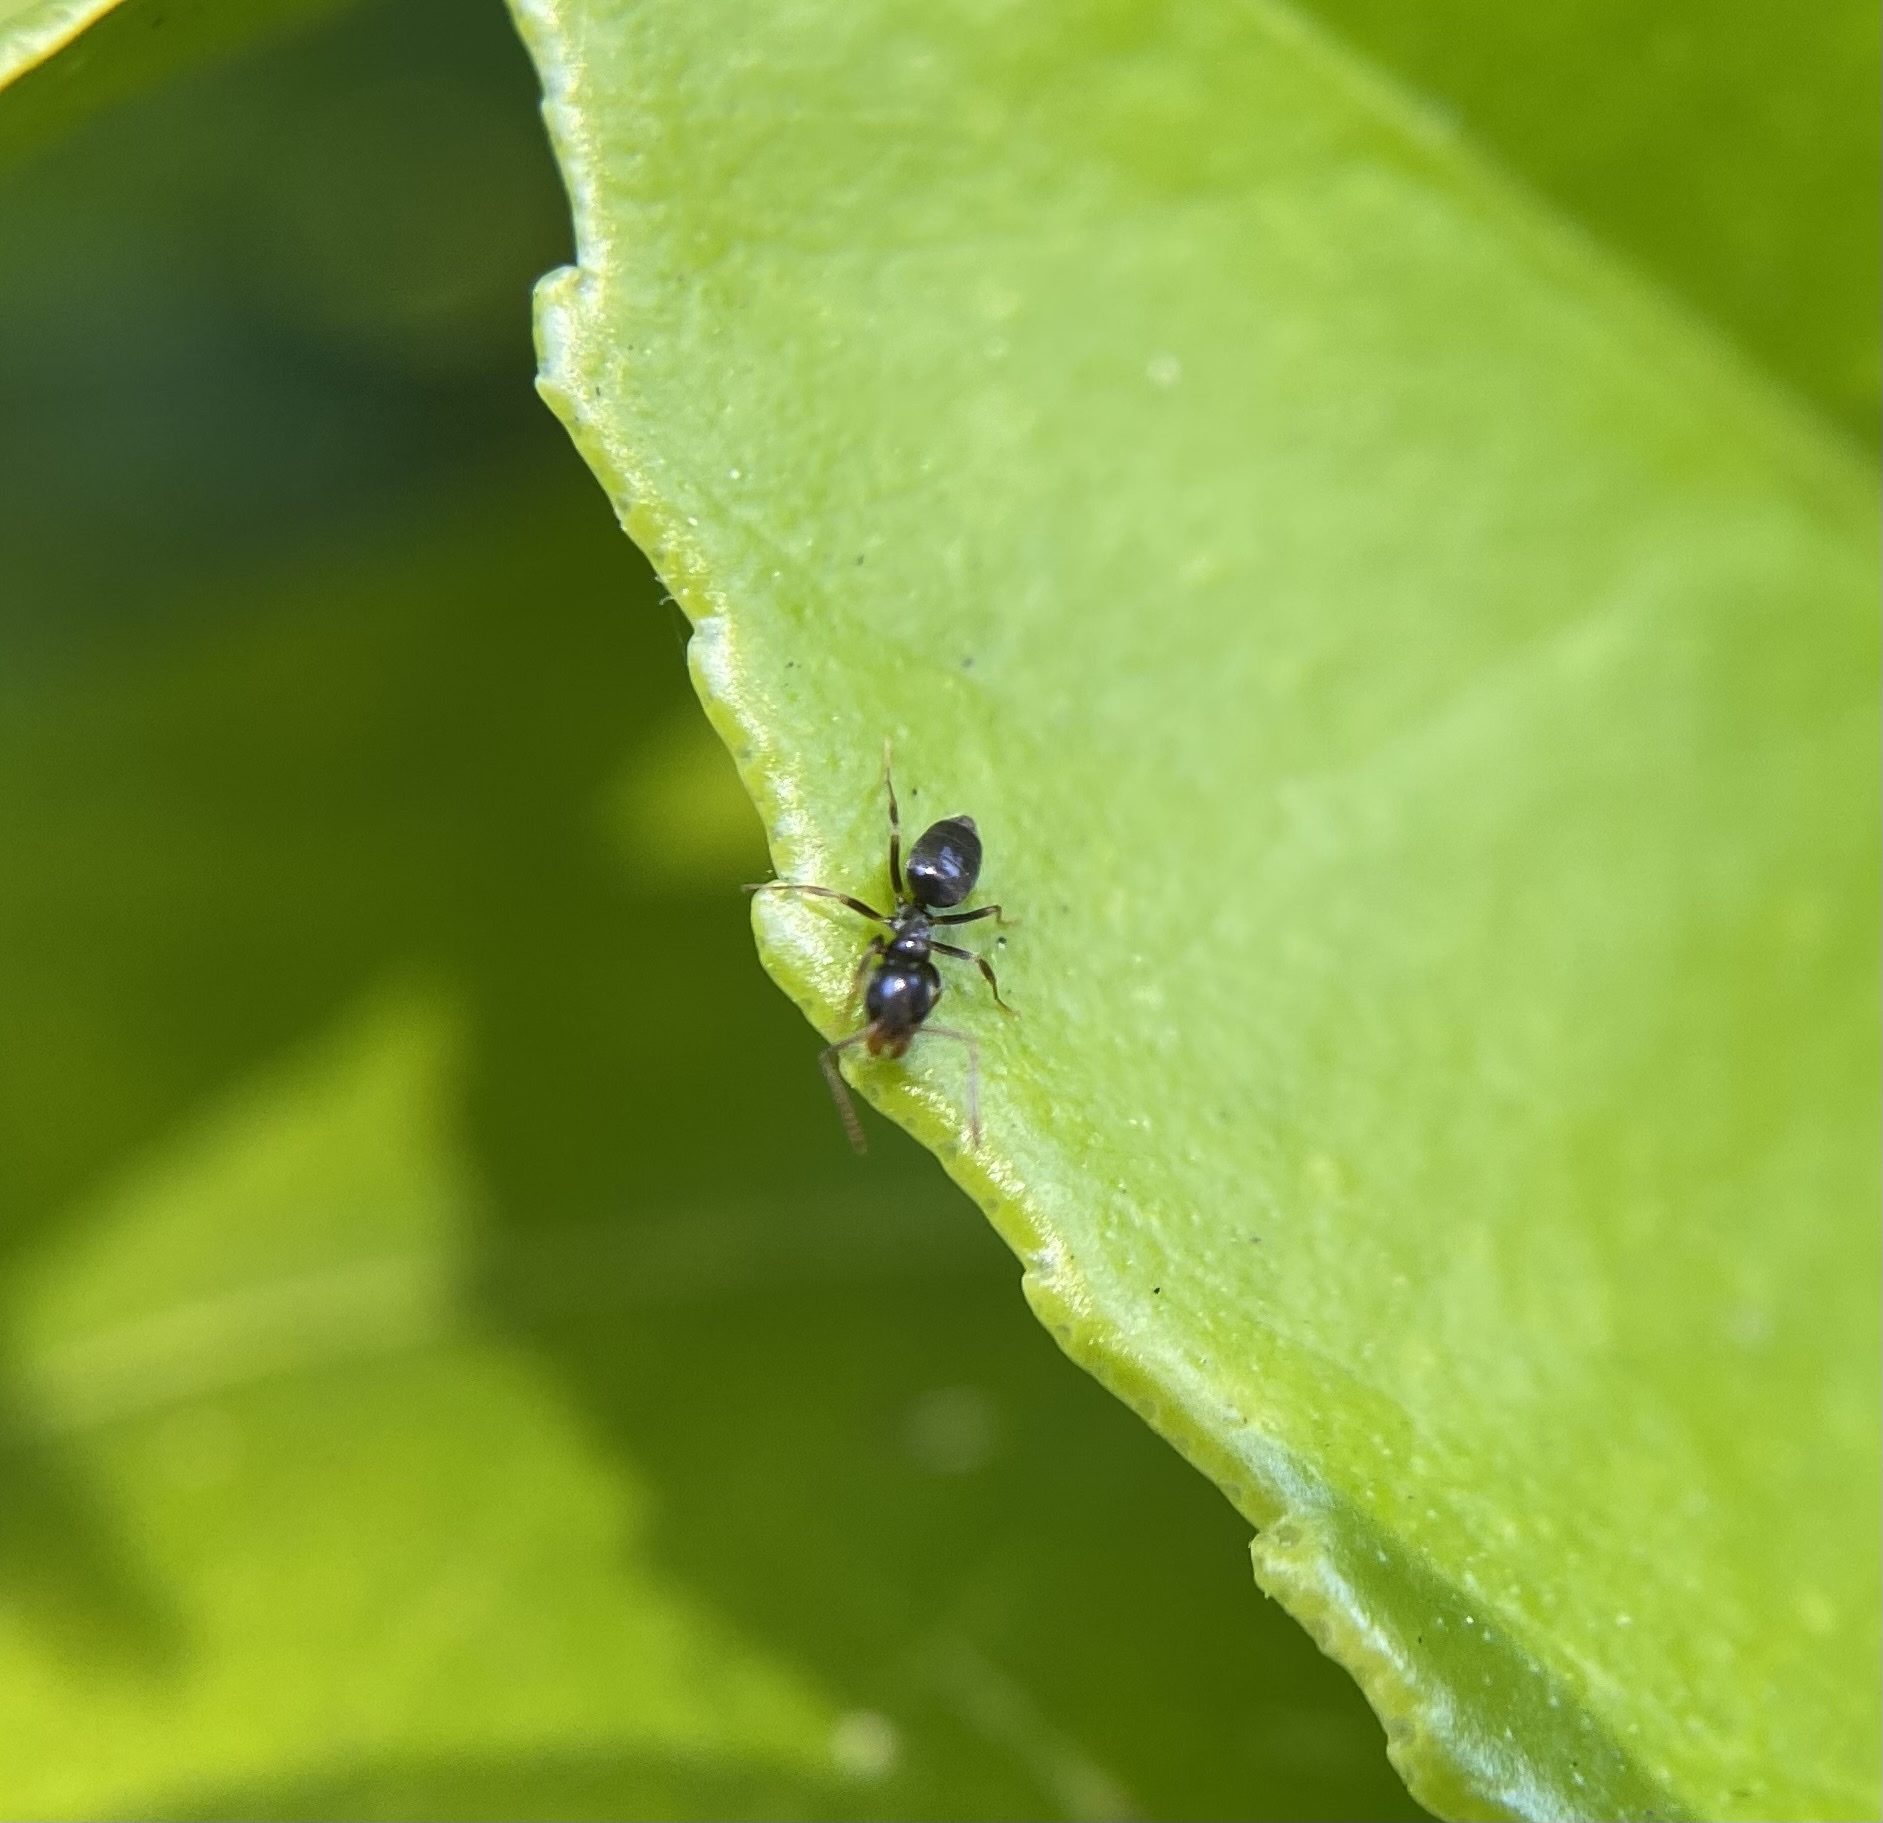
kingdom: Animalia
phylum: Arthropoda
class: Insecta
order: Hymenoptera
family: Formicidae
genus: Tapinoma
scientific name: Tapinoma sessile
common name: Odorous house ant
